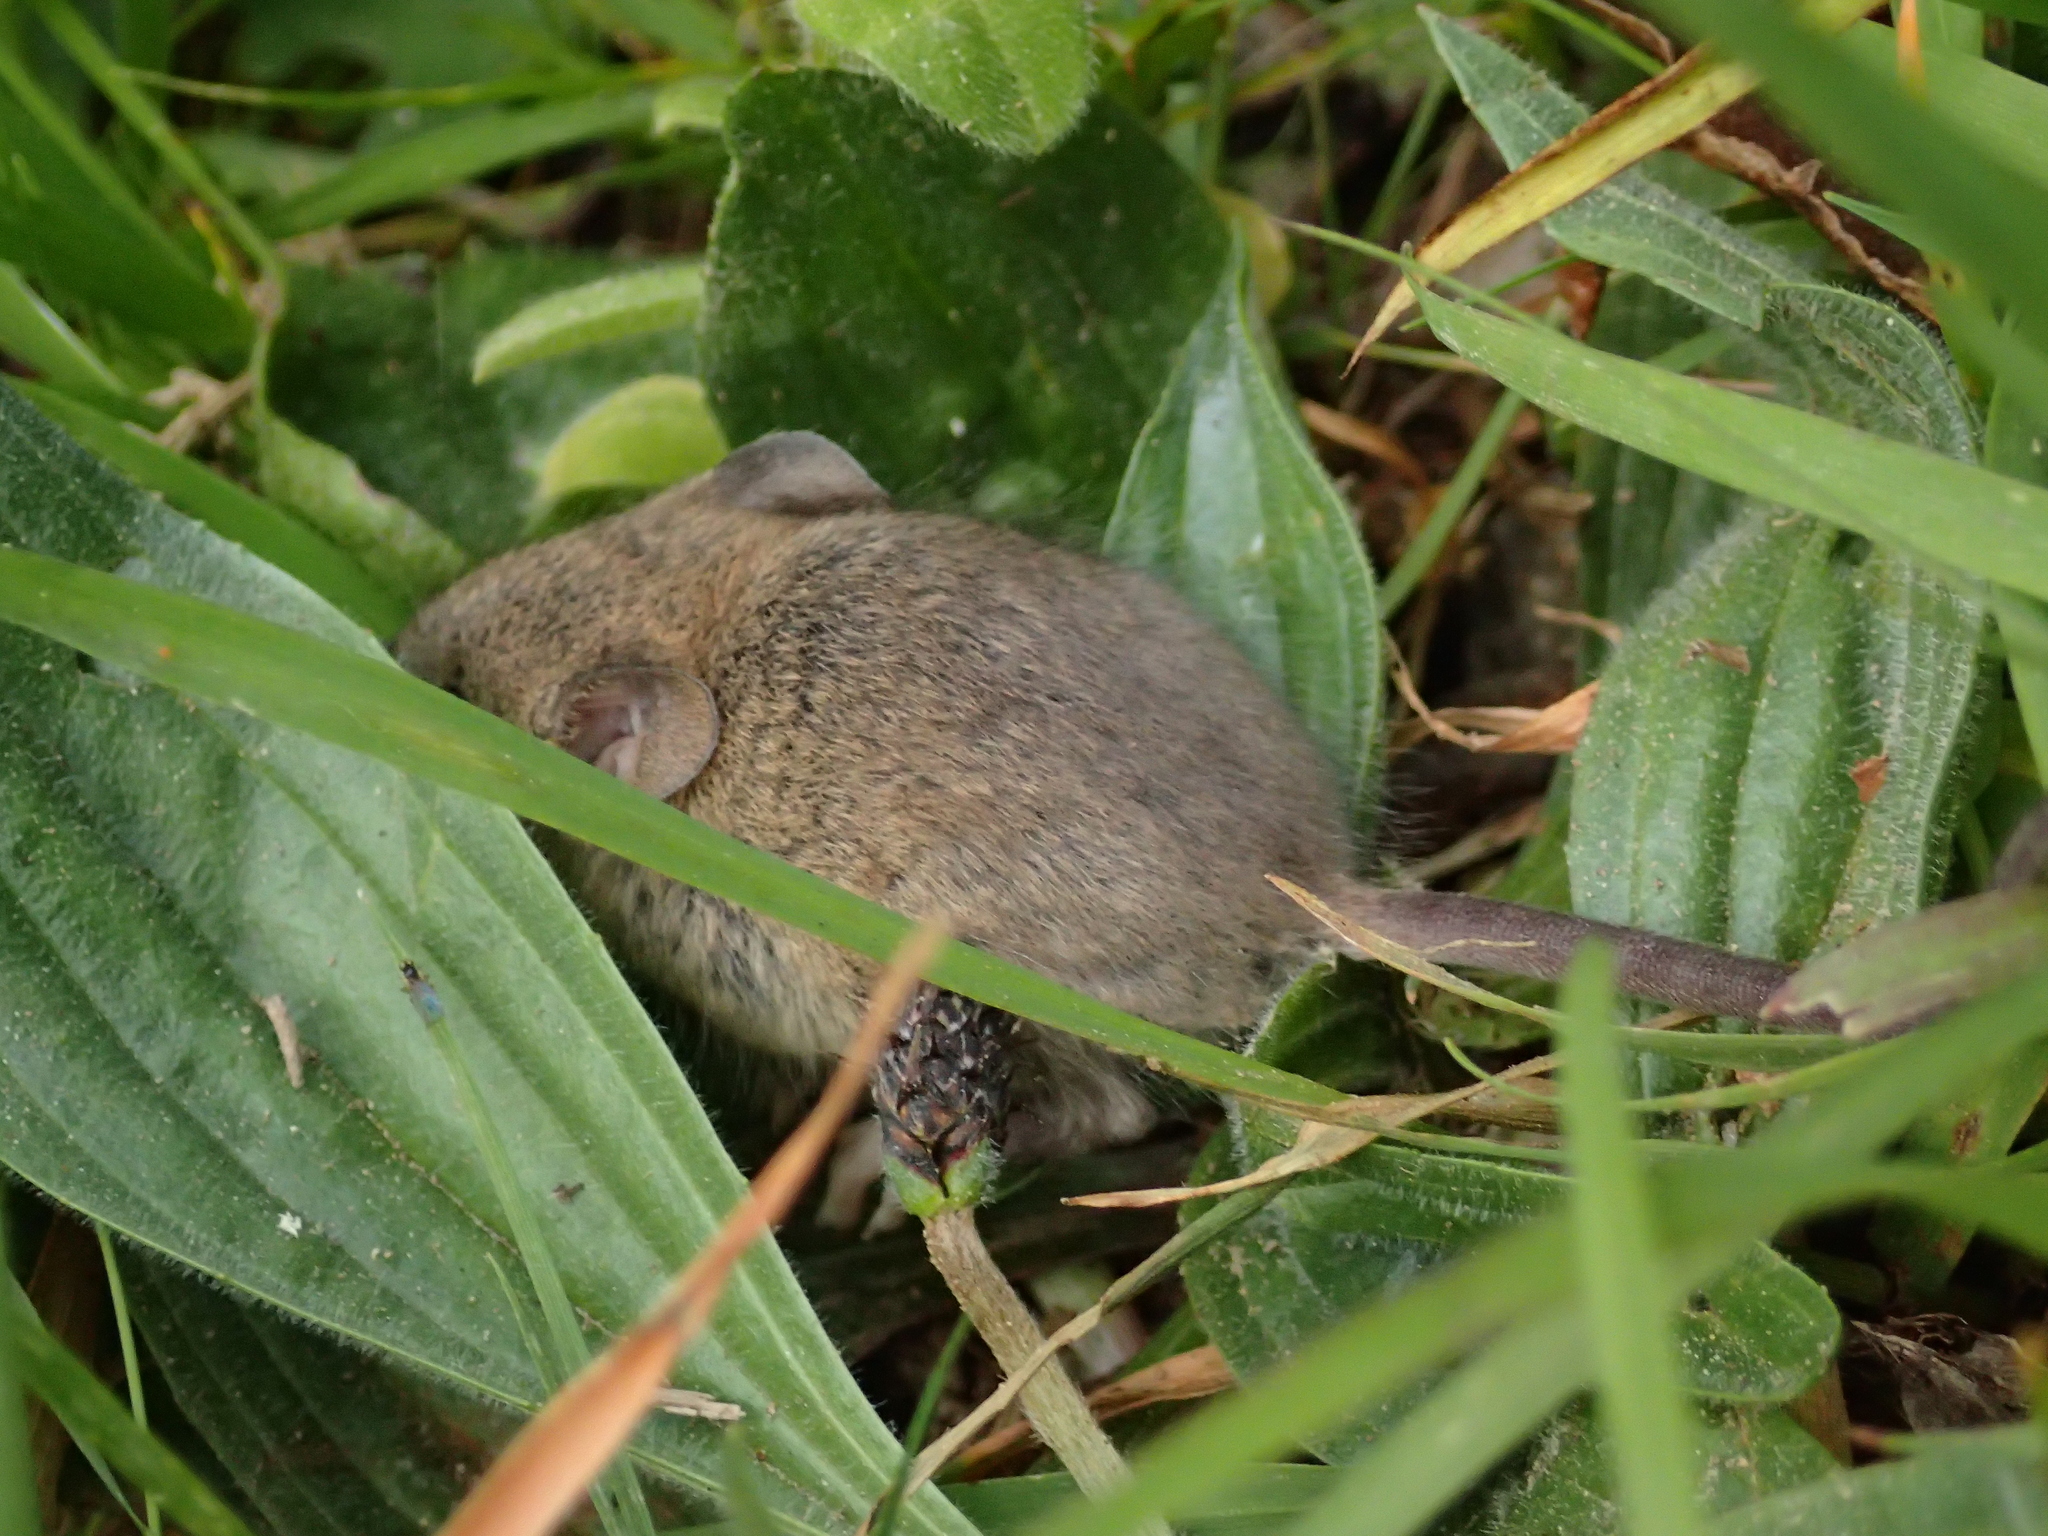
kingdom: Animalia
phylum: Chordata
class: Mammalia
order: Rodentia
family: Muridae
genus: Mus
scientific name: Mus musculus
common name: House mouse
